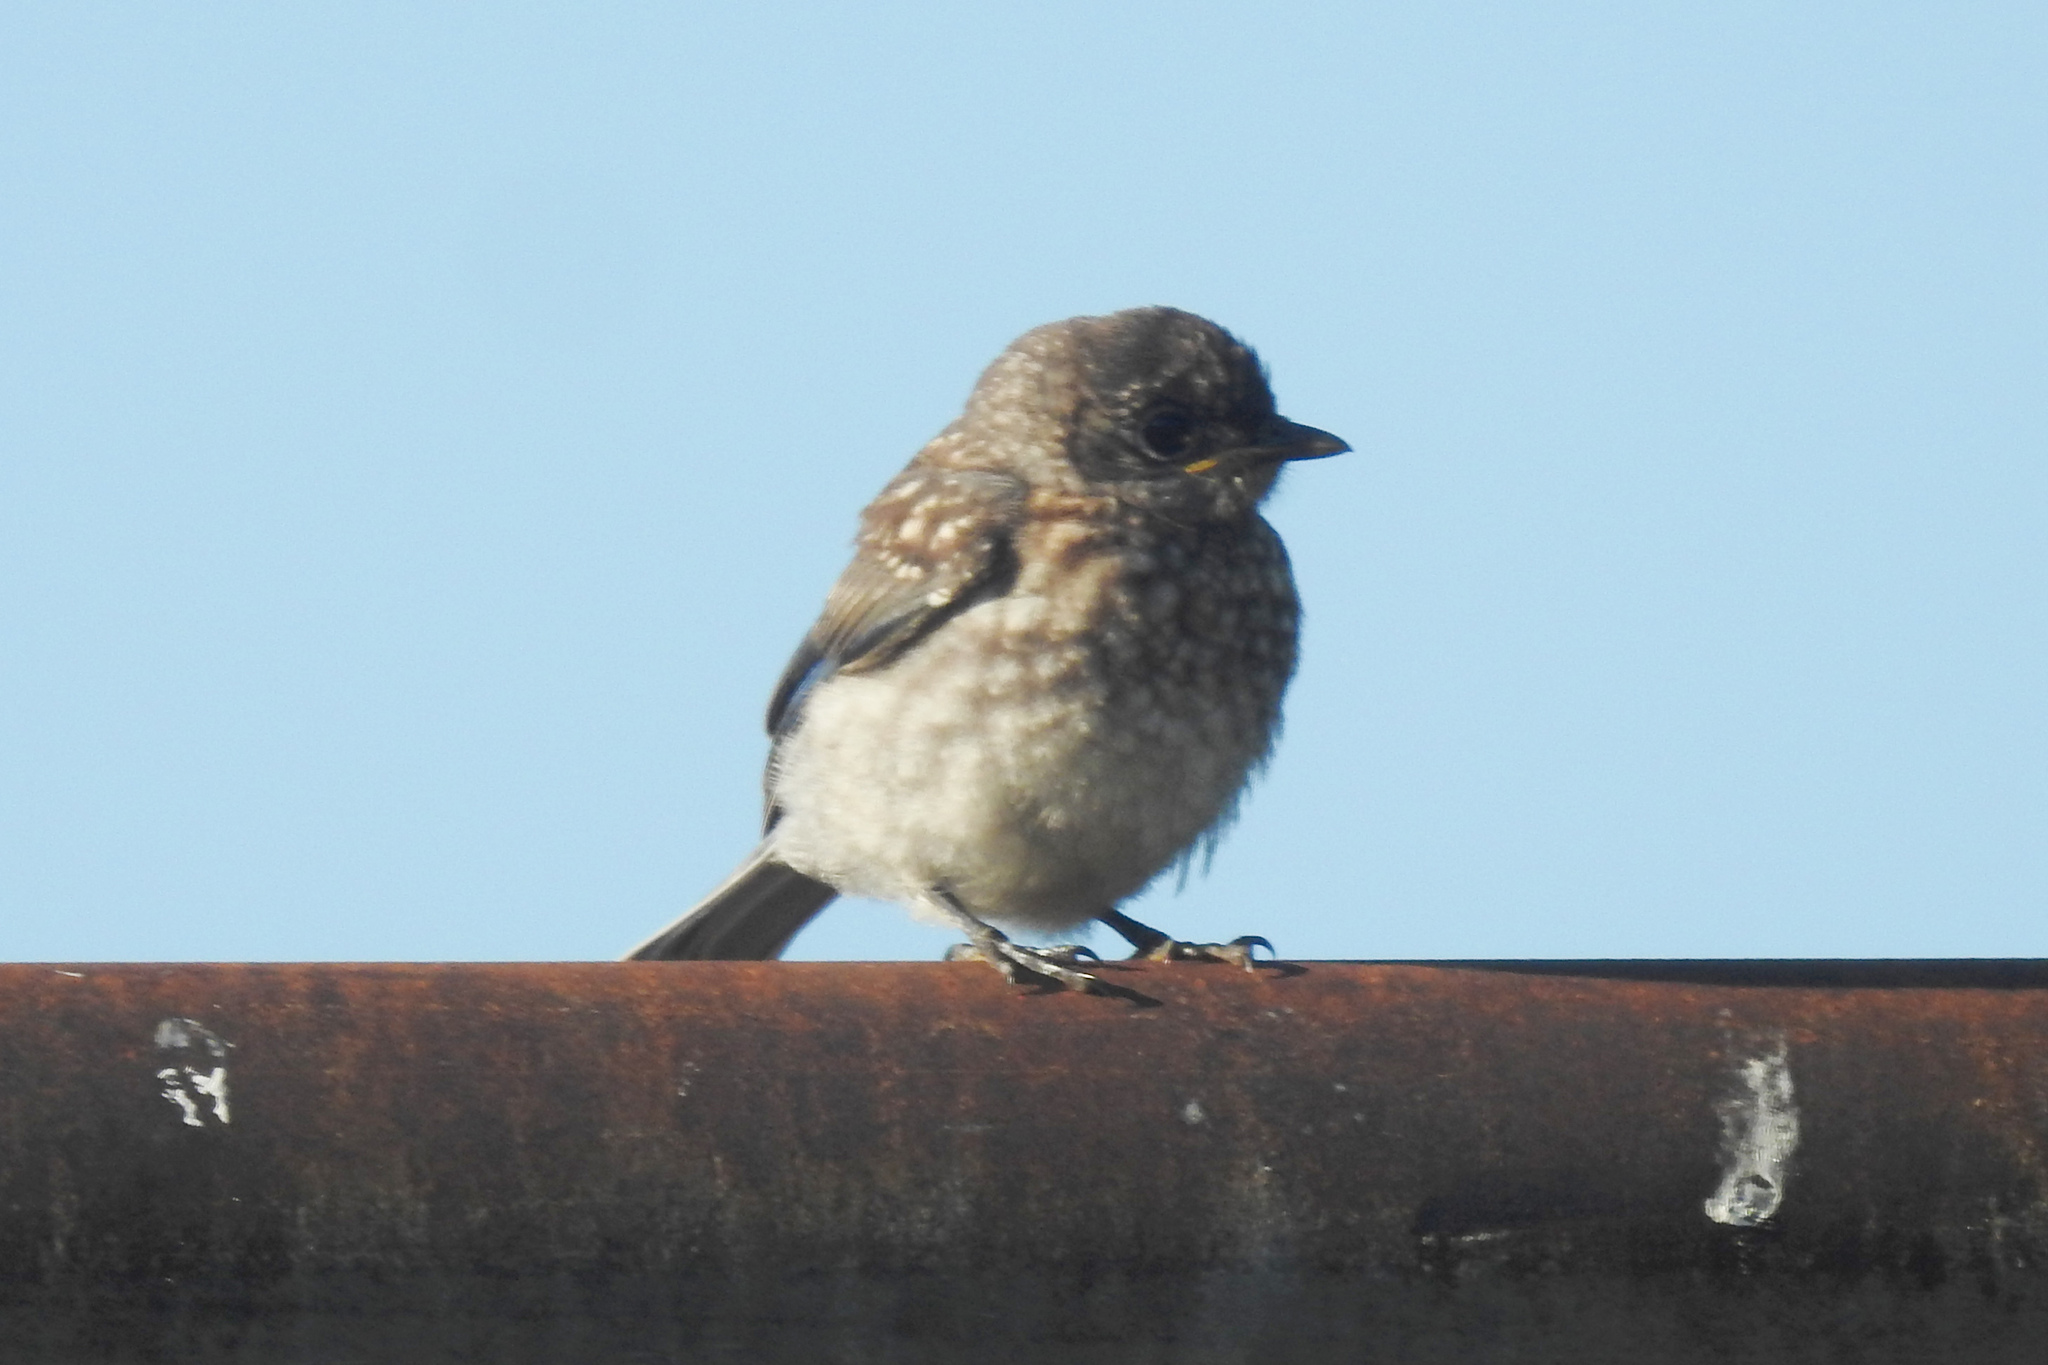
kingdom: Animalia
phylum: Chordata
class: Aves
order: Passeriformes
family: Turdidae
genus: Sialia
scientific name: Sialia sialis
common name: Eastern bluebird
